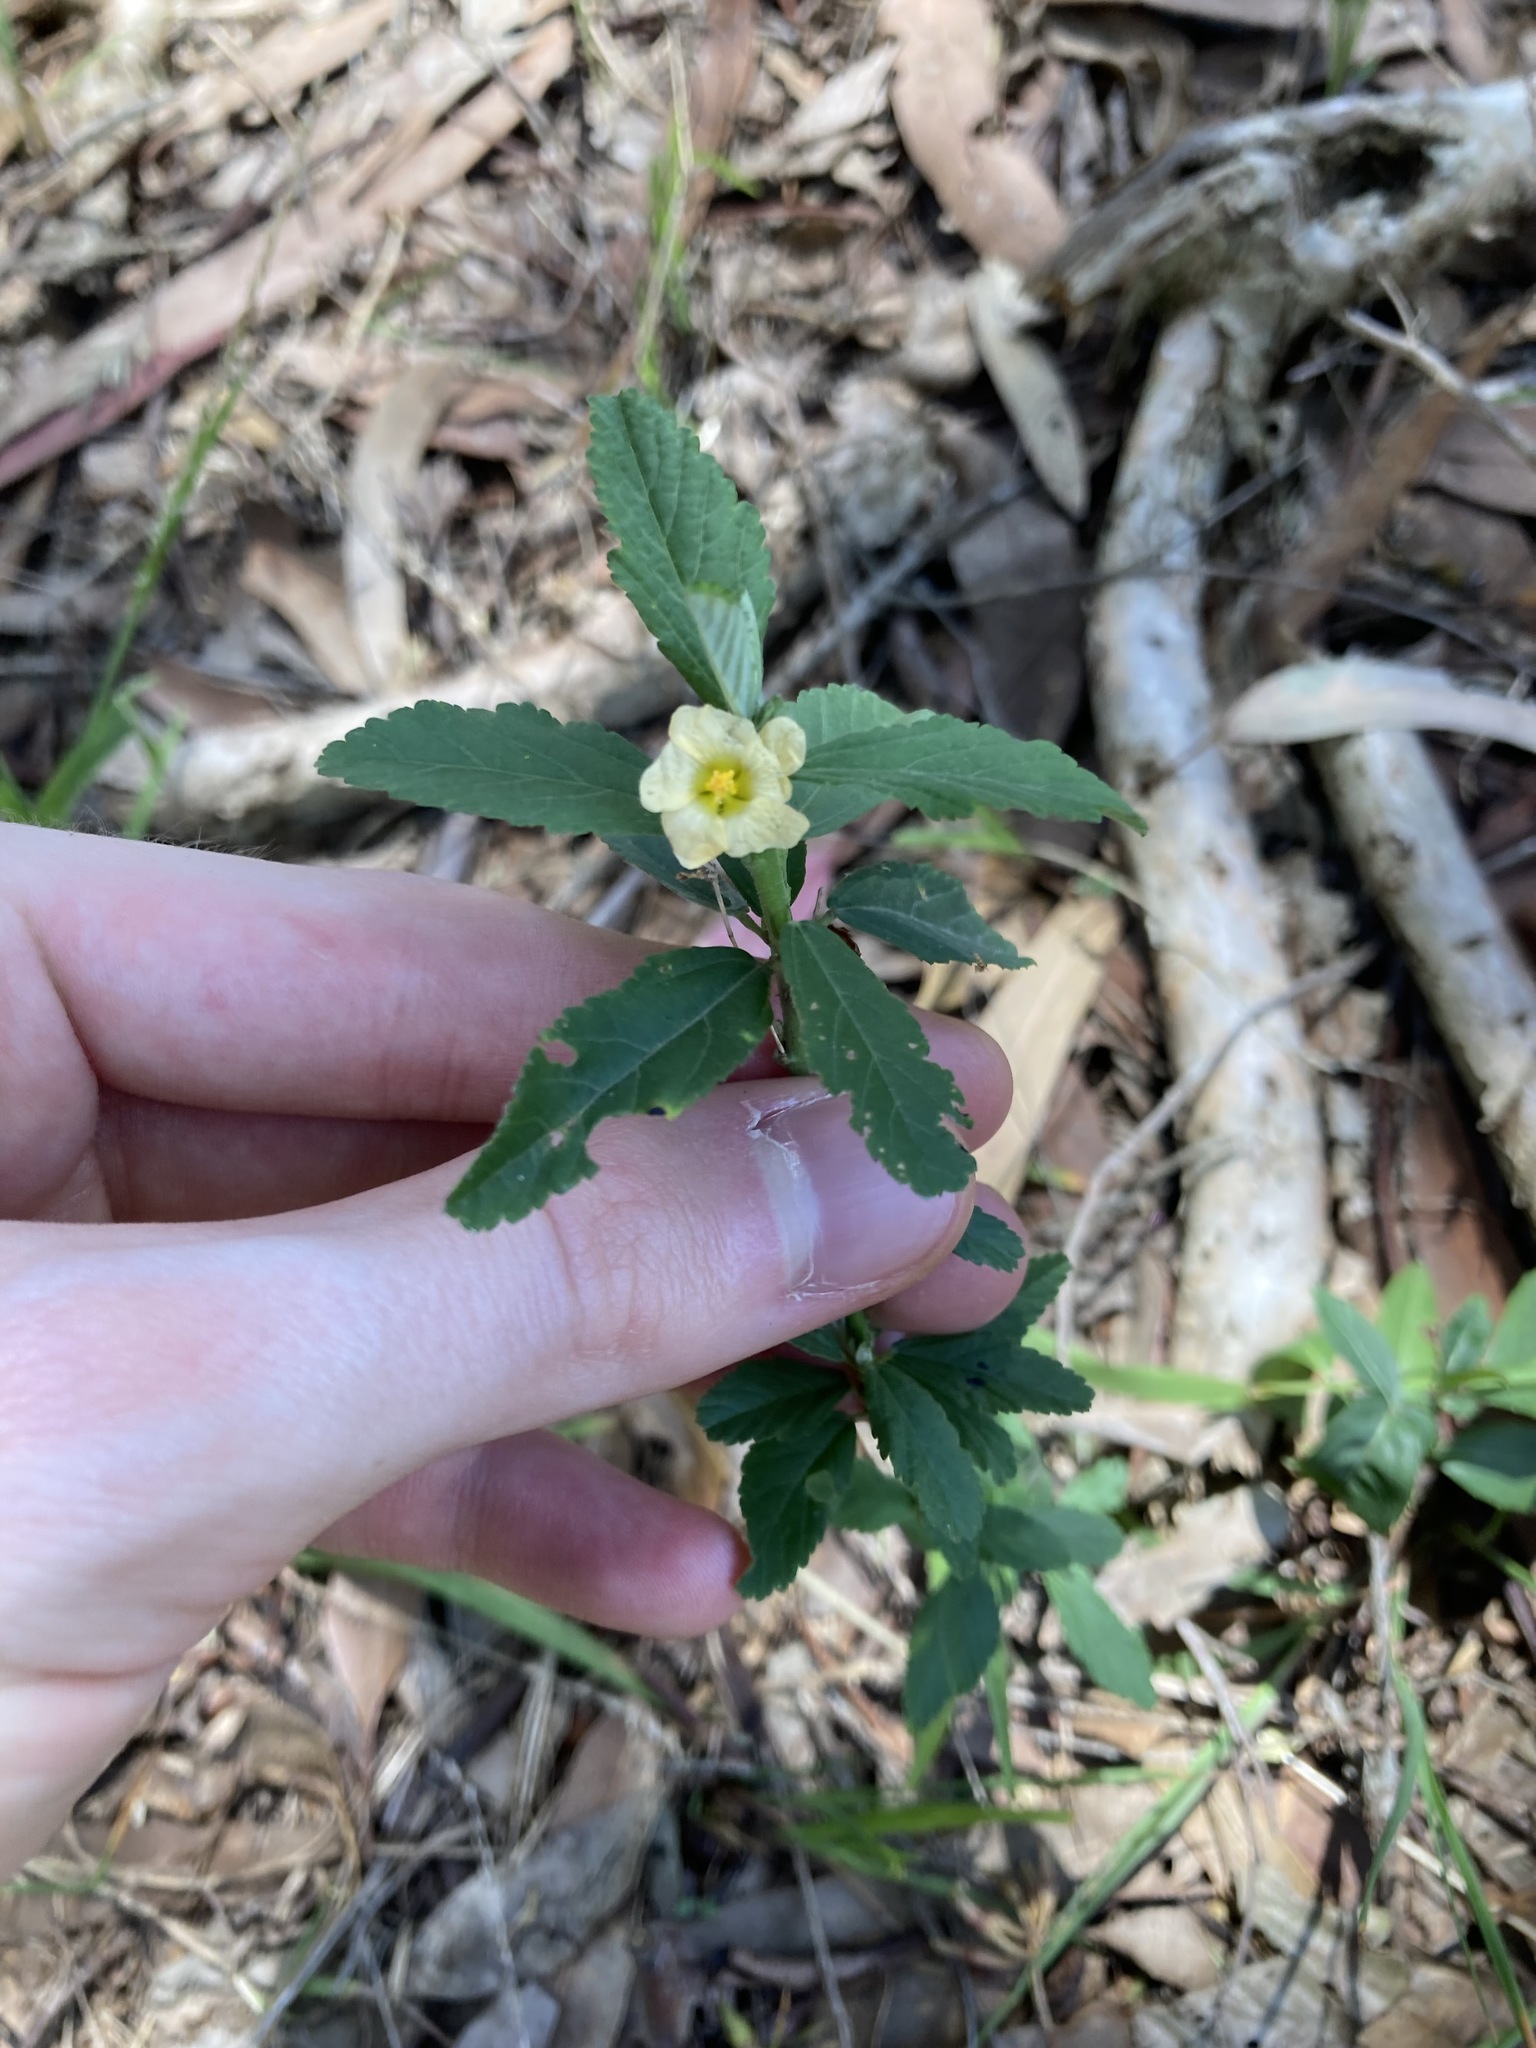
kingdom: Plantae
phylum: Tracheophyta
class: Magnoliopsida
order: Malvales
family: Malvaceae
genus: Sida
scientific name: Sida rhombifolia
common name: Queensland-hemp
